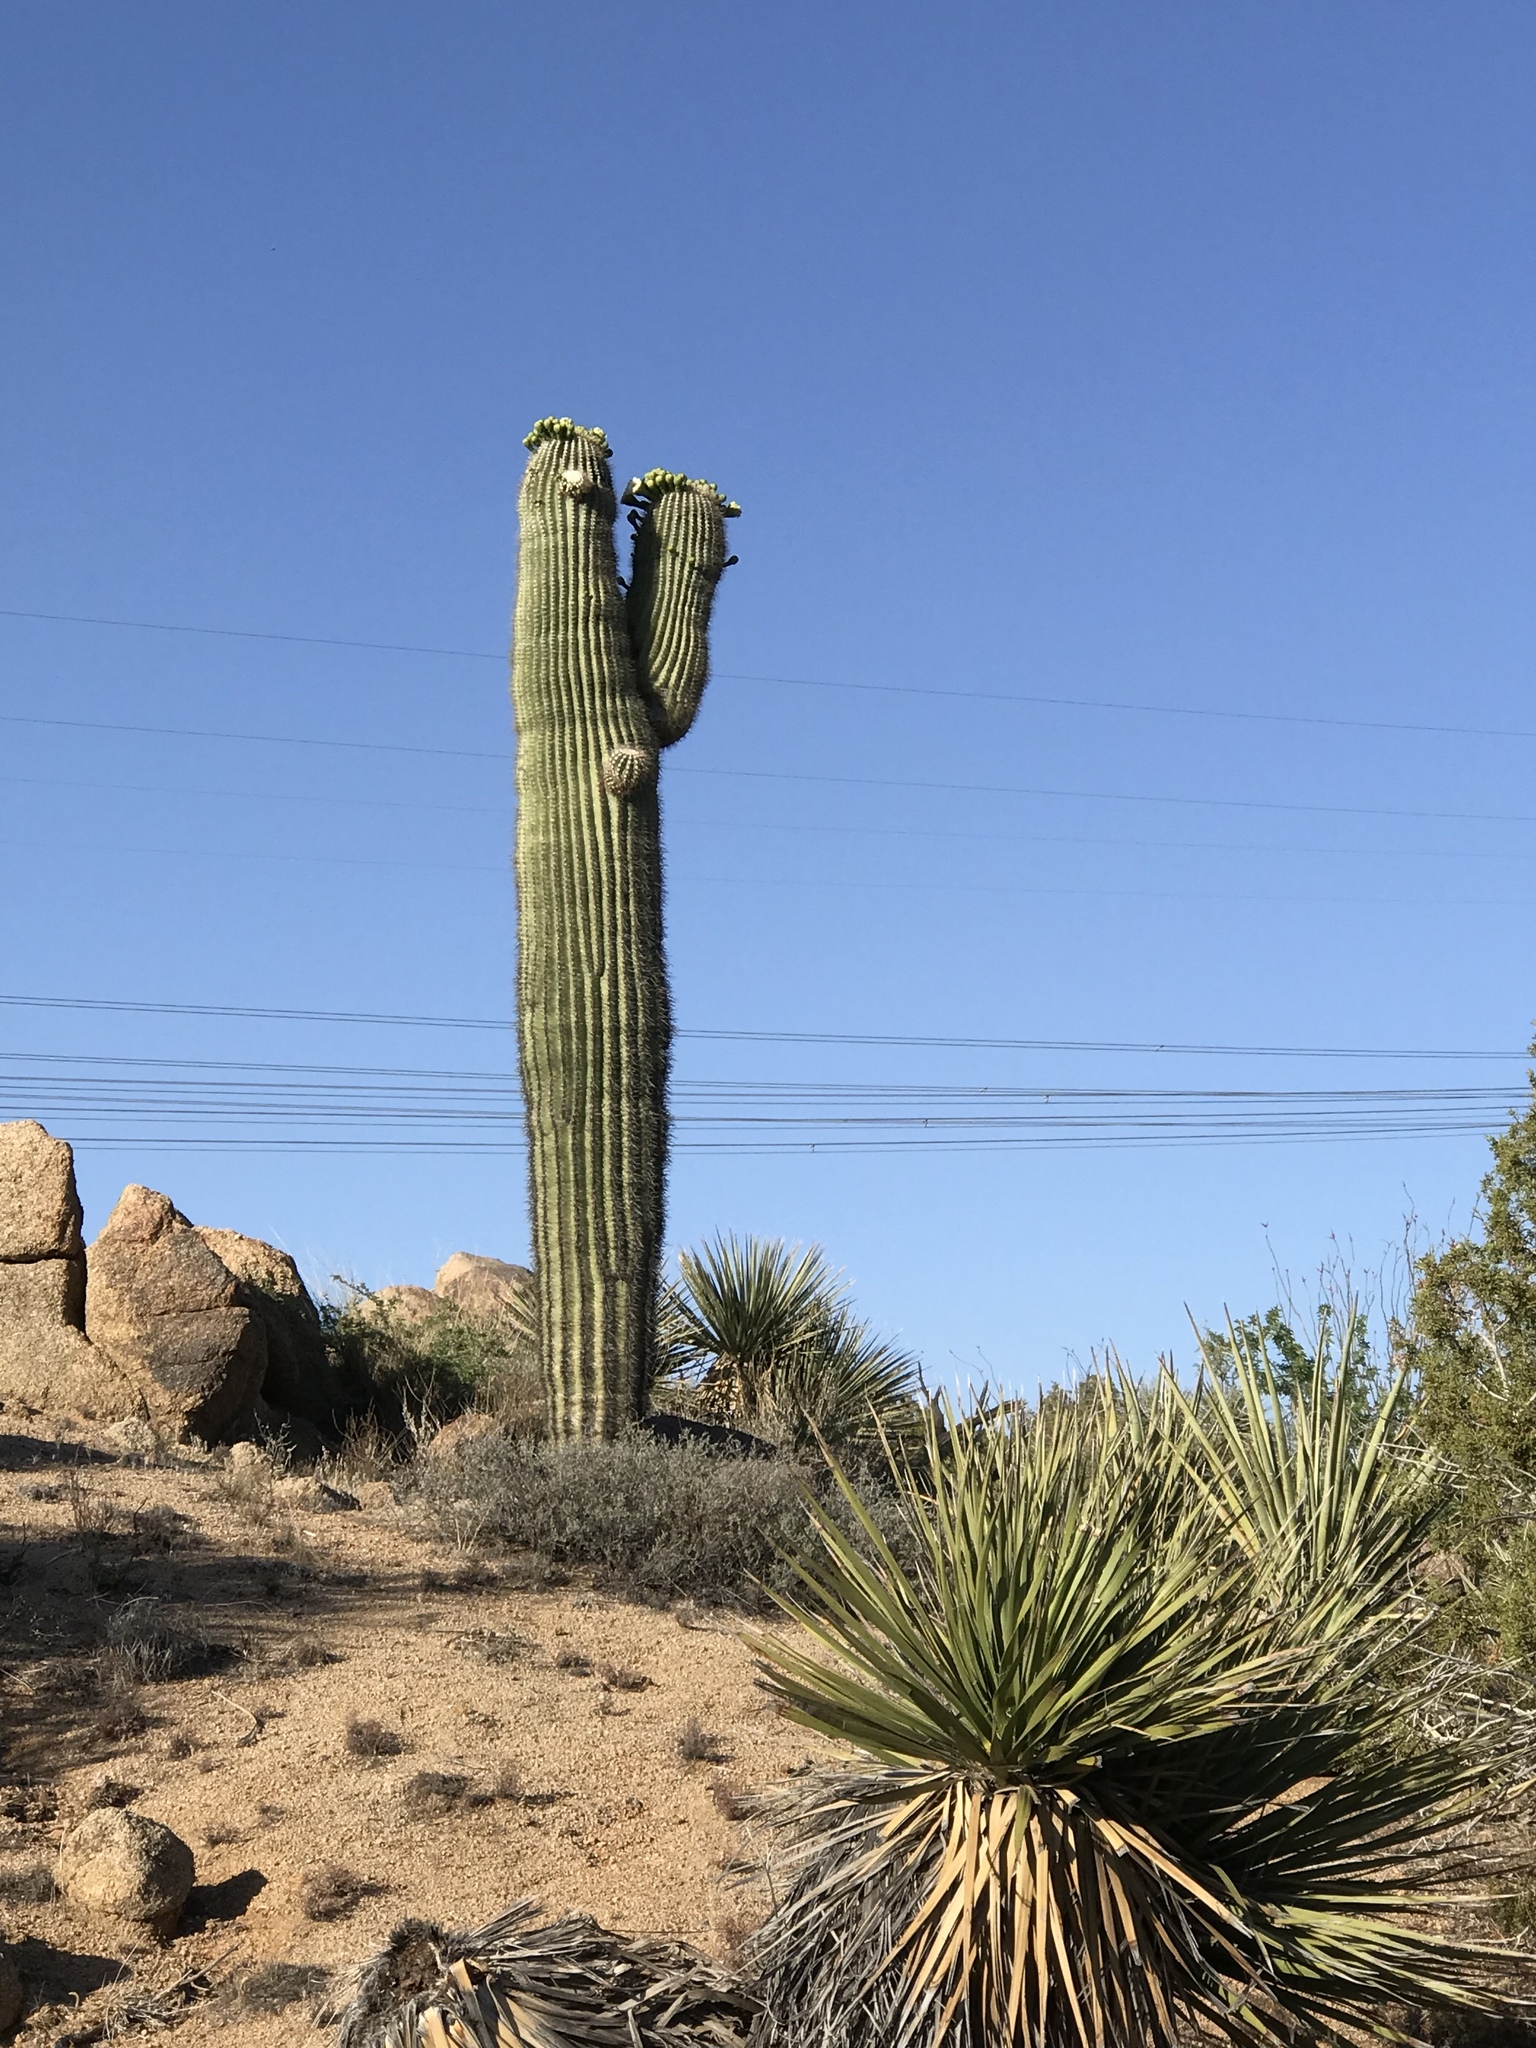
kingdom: Plantae
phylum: Tracheophyta
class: Magnoliopsida
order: Caryophyllales
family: Cactaceae
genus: Carnegiea
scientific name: Carnegiea gigantea
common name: Saguaro
